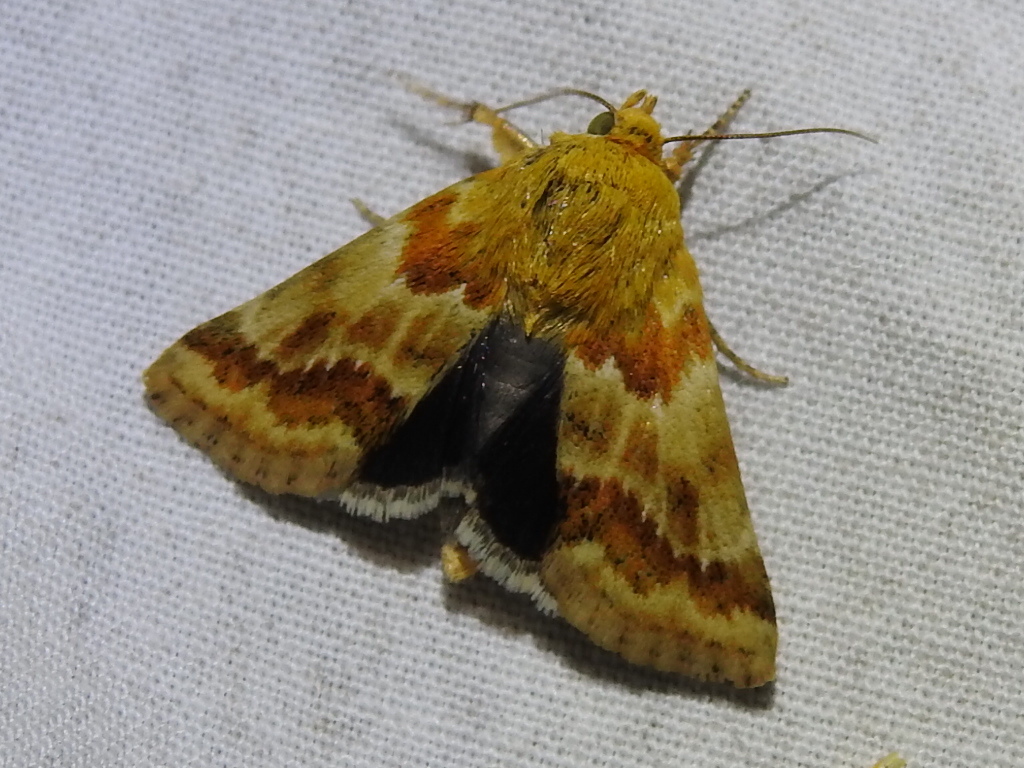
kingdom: Animalia
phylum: Arthropoda
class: Insecta
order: Lepidoptera
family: Noctuidae
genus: Schinia
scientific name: Schinia siren
